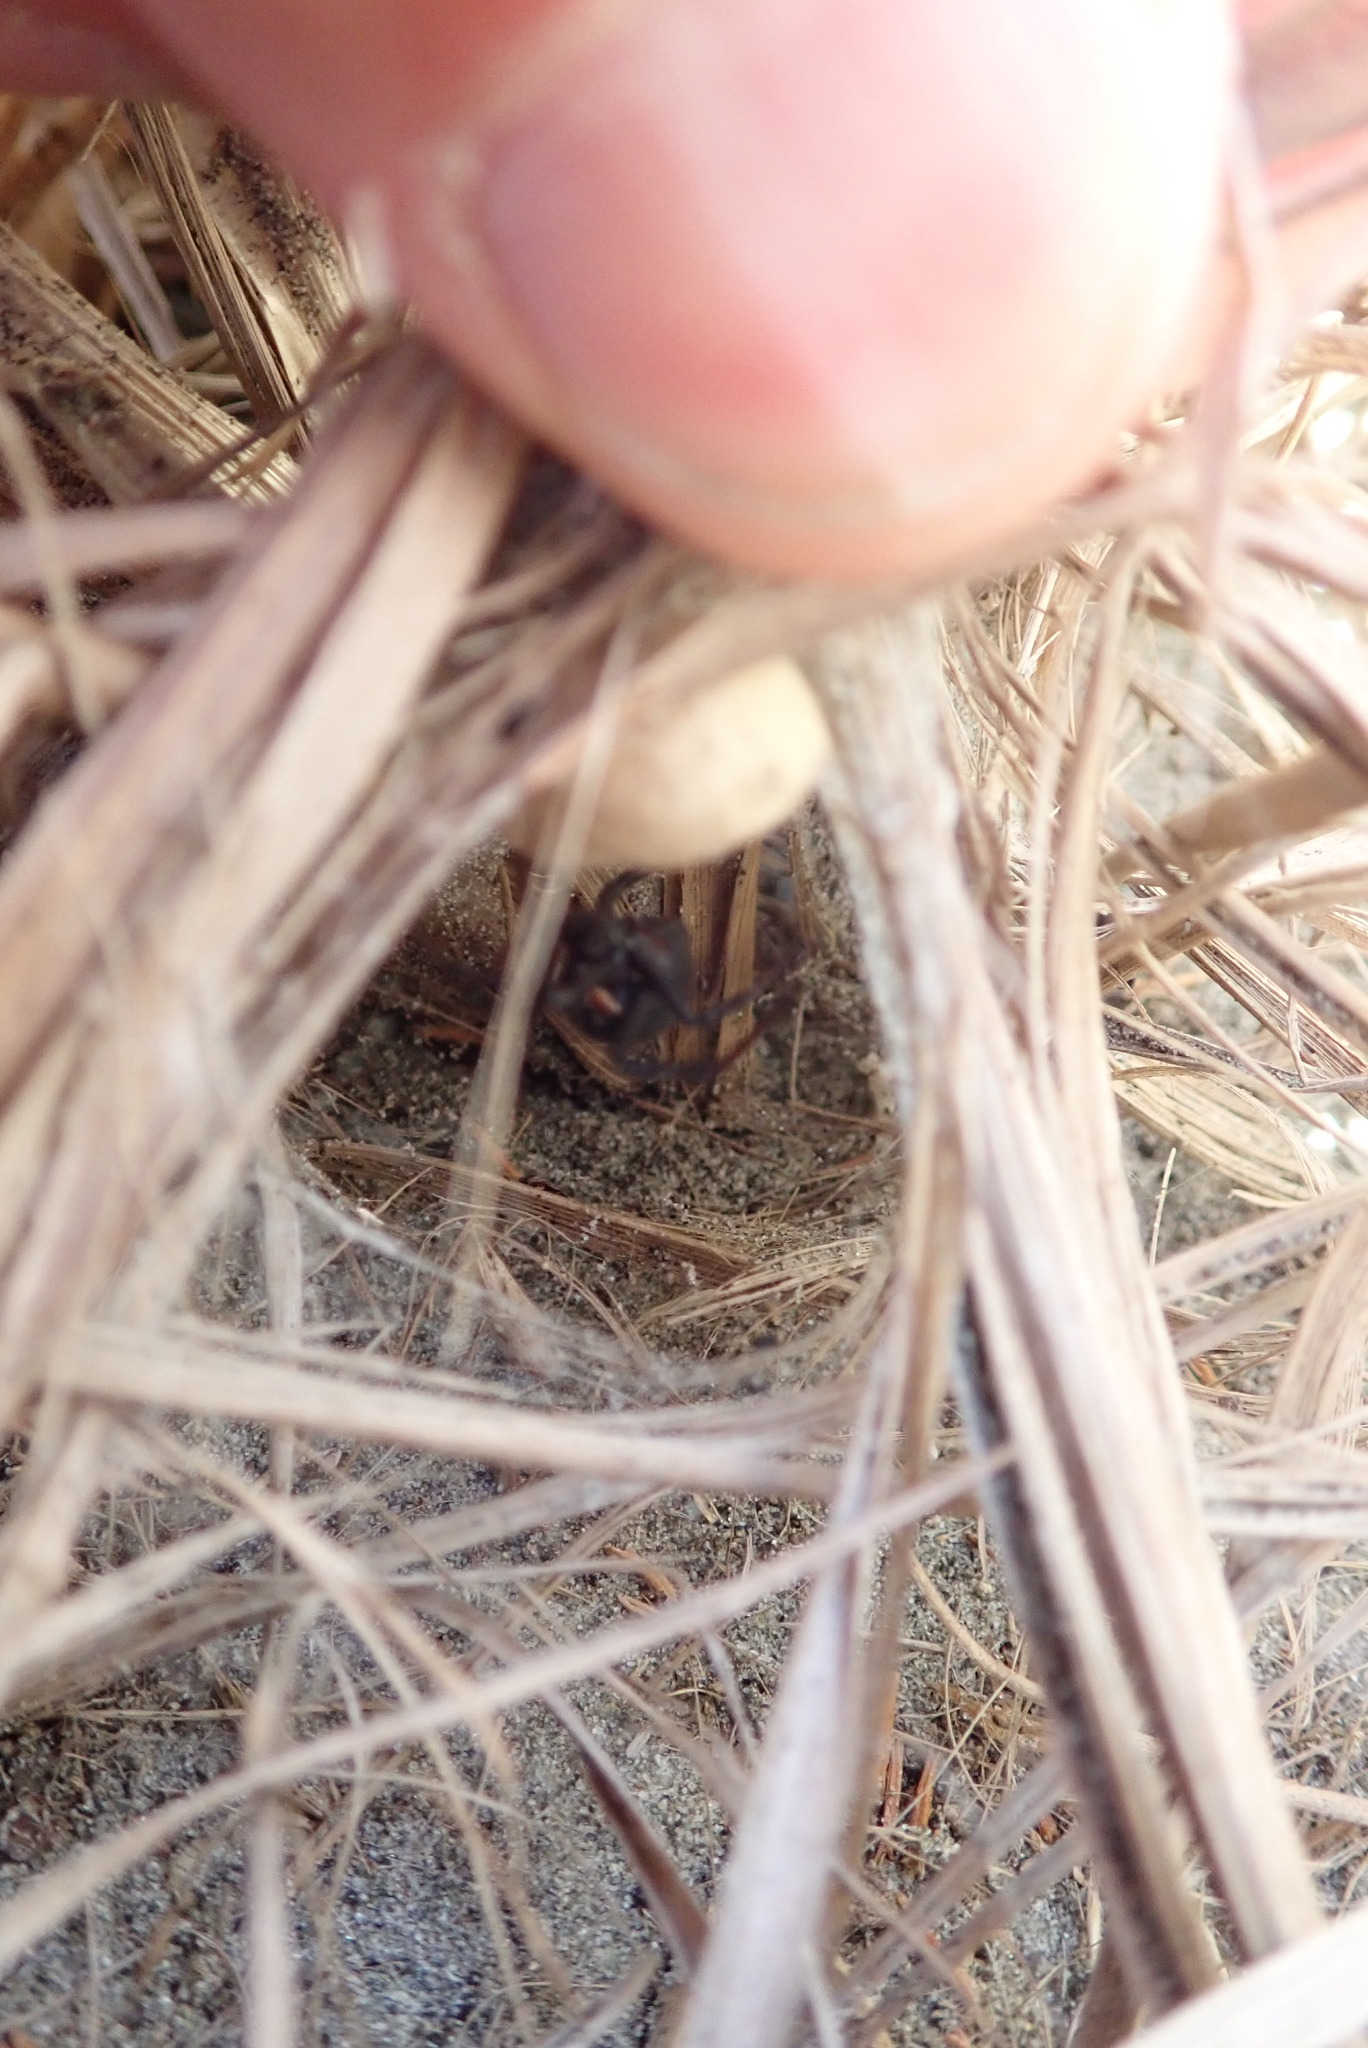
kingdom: Animalia
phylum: Arthropoda
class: Arachnida
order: Araneae
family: Theridiidae
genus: Latrodectus
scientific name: Latrodectus katipo
